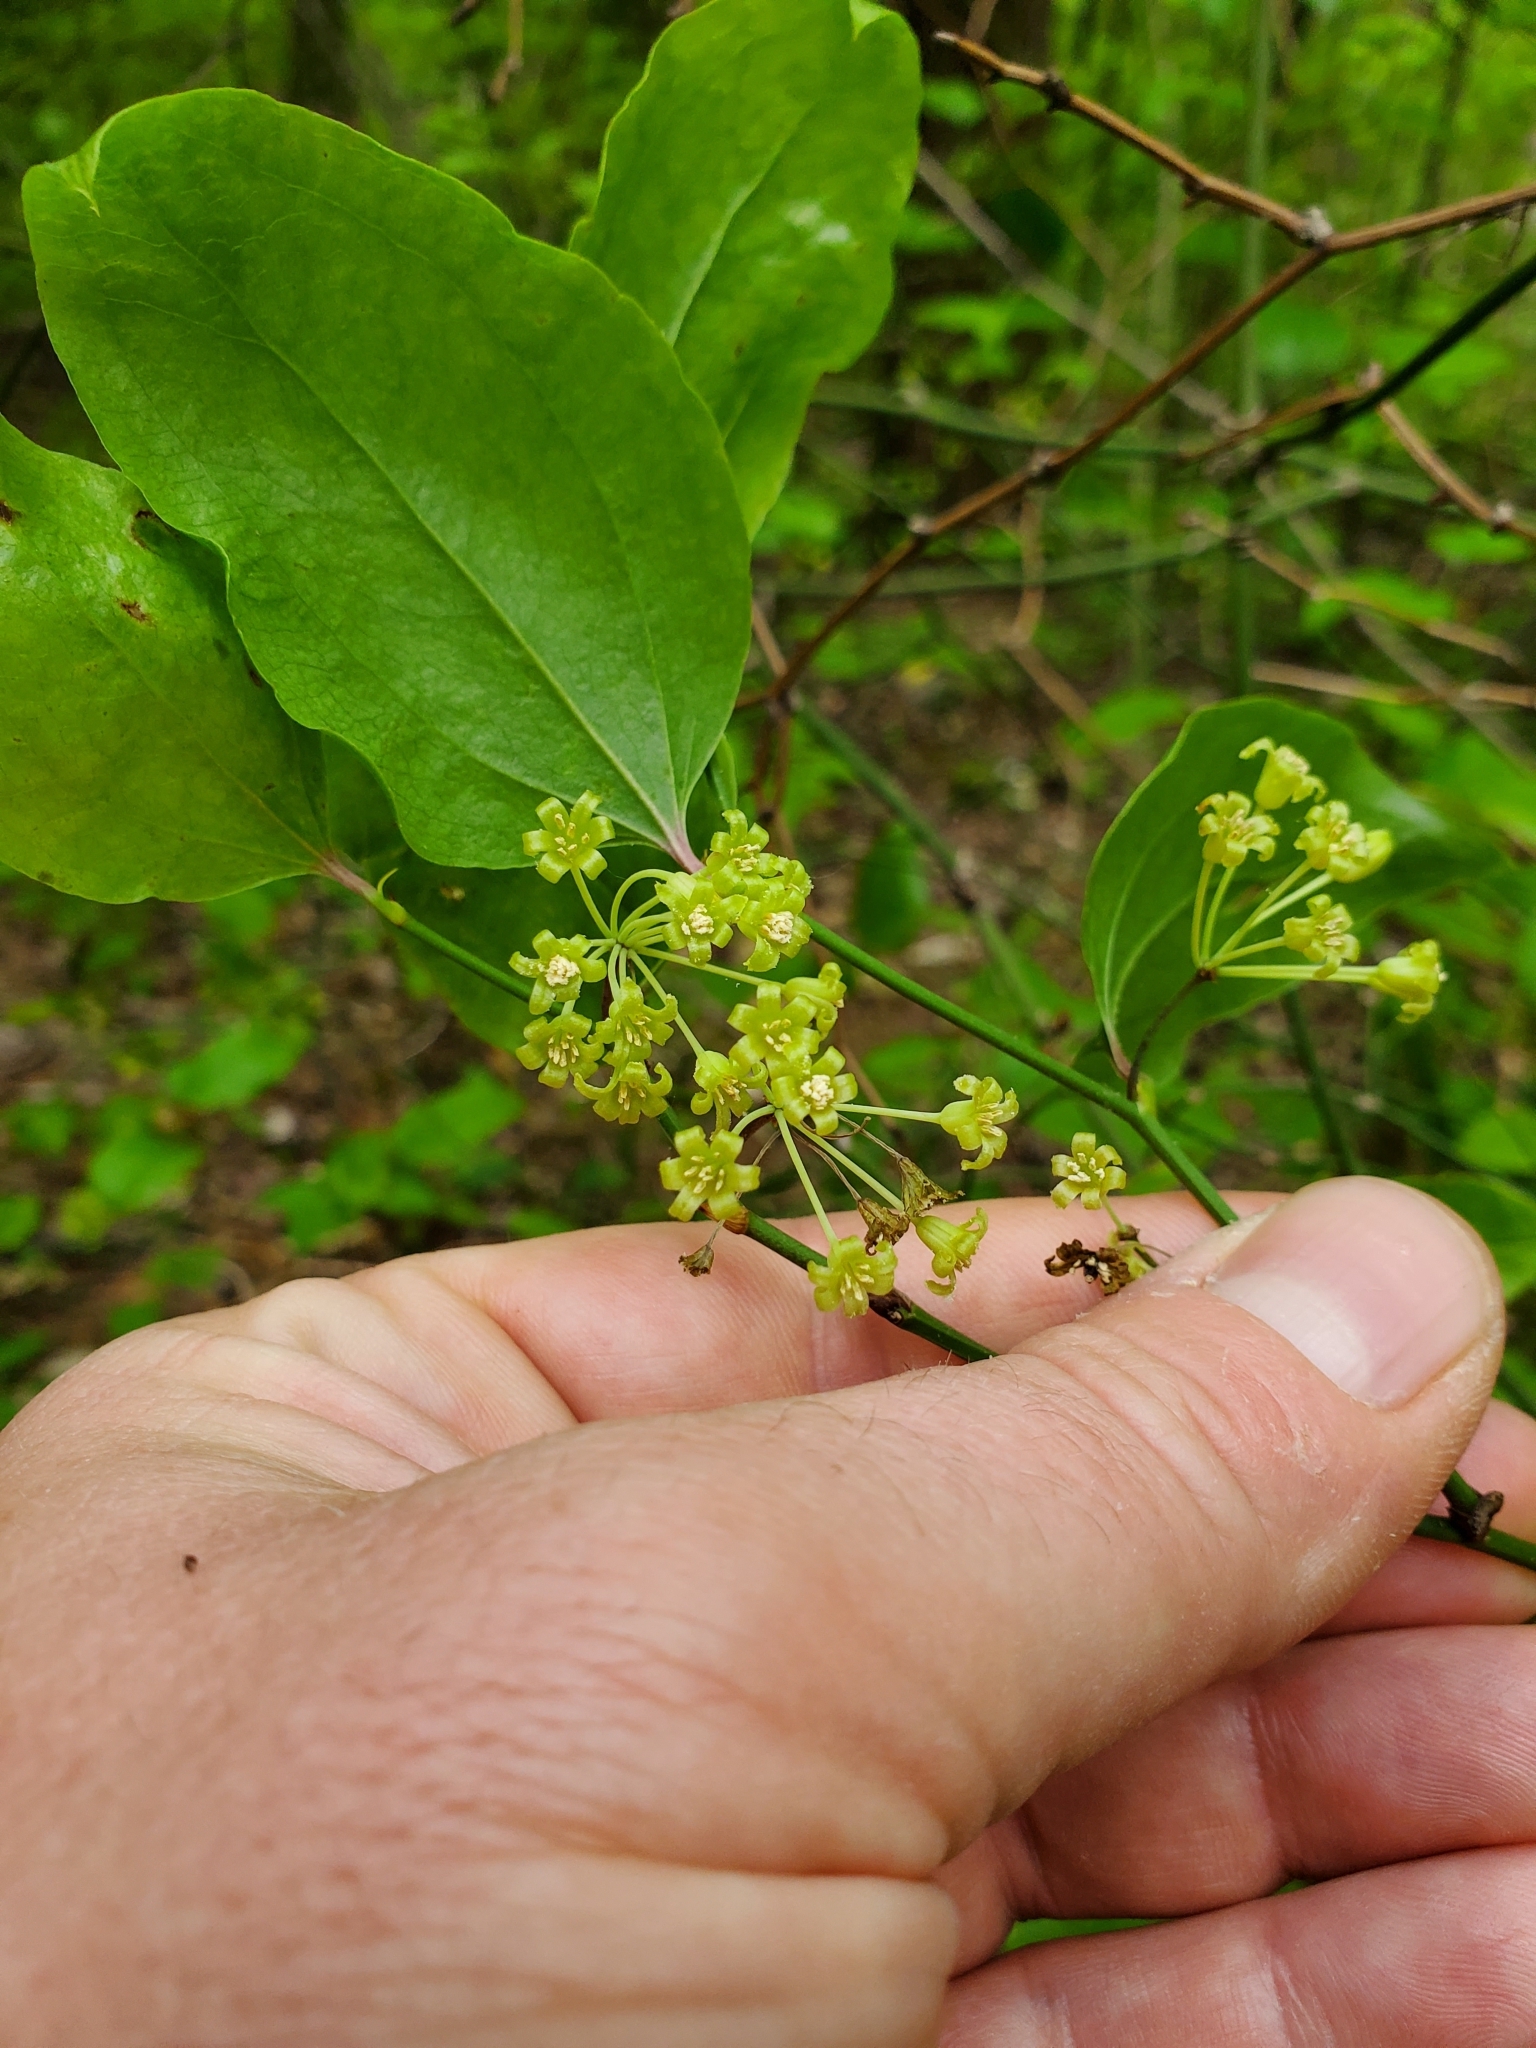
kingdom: Plantae
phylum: Tracheophyta
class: Liliopsida
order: Liliales
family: Smilacaceae
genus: Smilax
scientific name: Smilax rotundifolia
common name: Bullbriar
